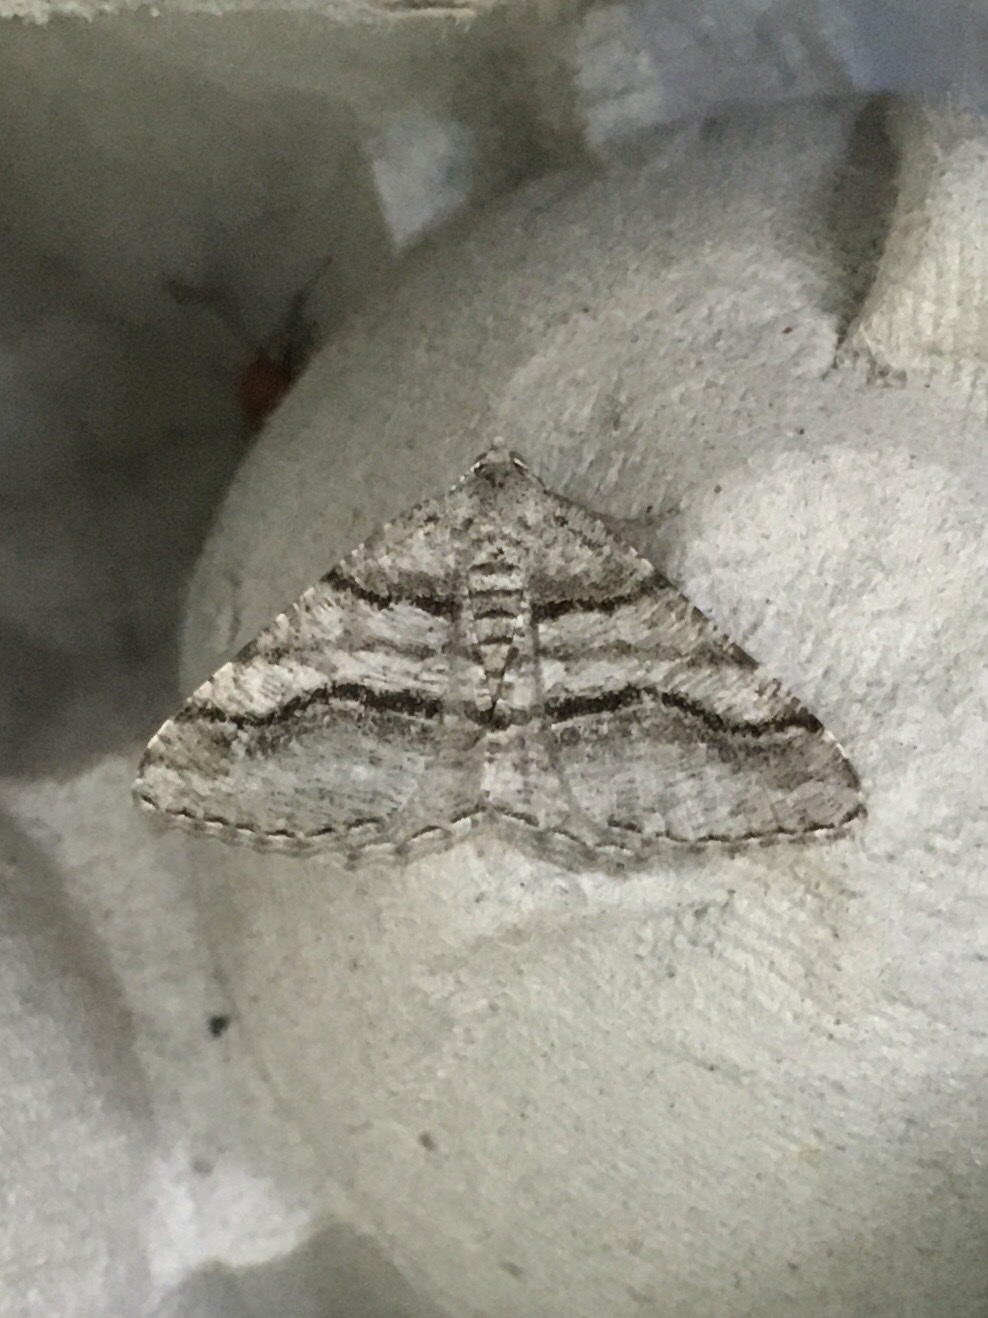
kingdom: Animalia
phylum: Arthropoda
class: Insecta
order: Lepidoptera
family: Geometridae
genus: Digrammia
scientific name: Digrammia continuata
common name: Curve-lined angle
